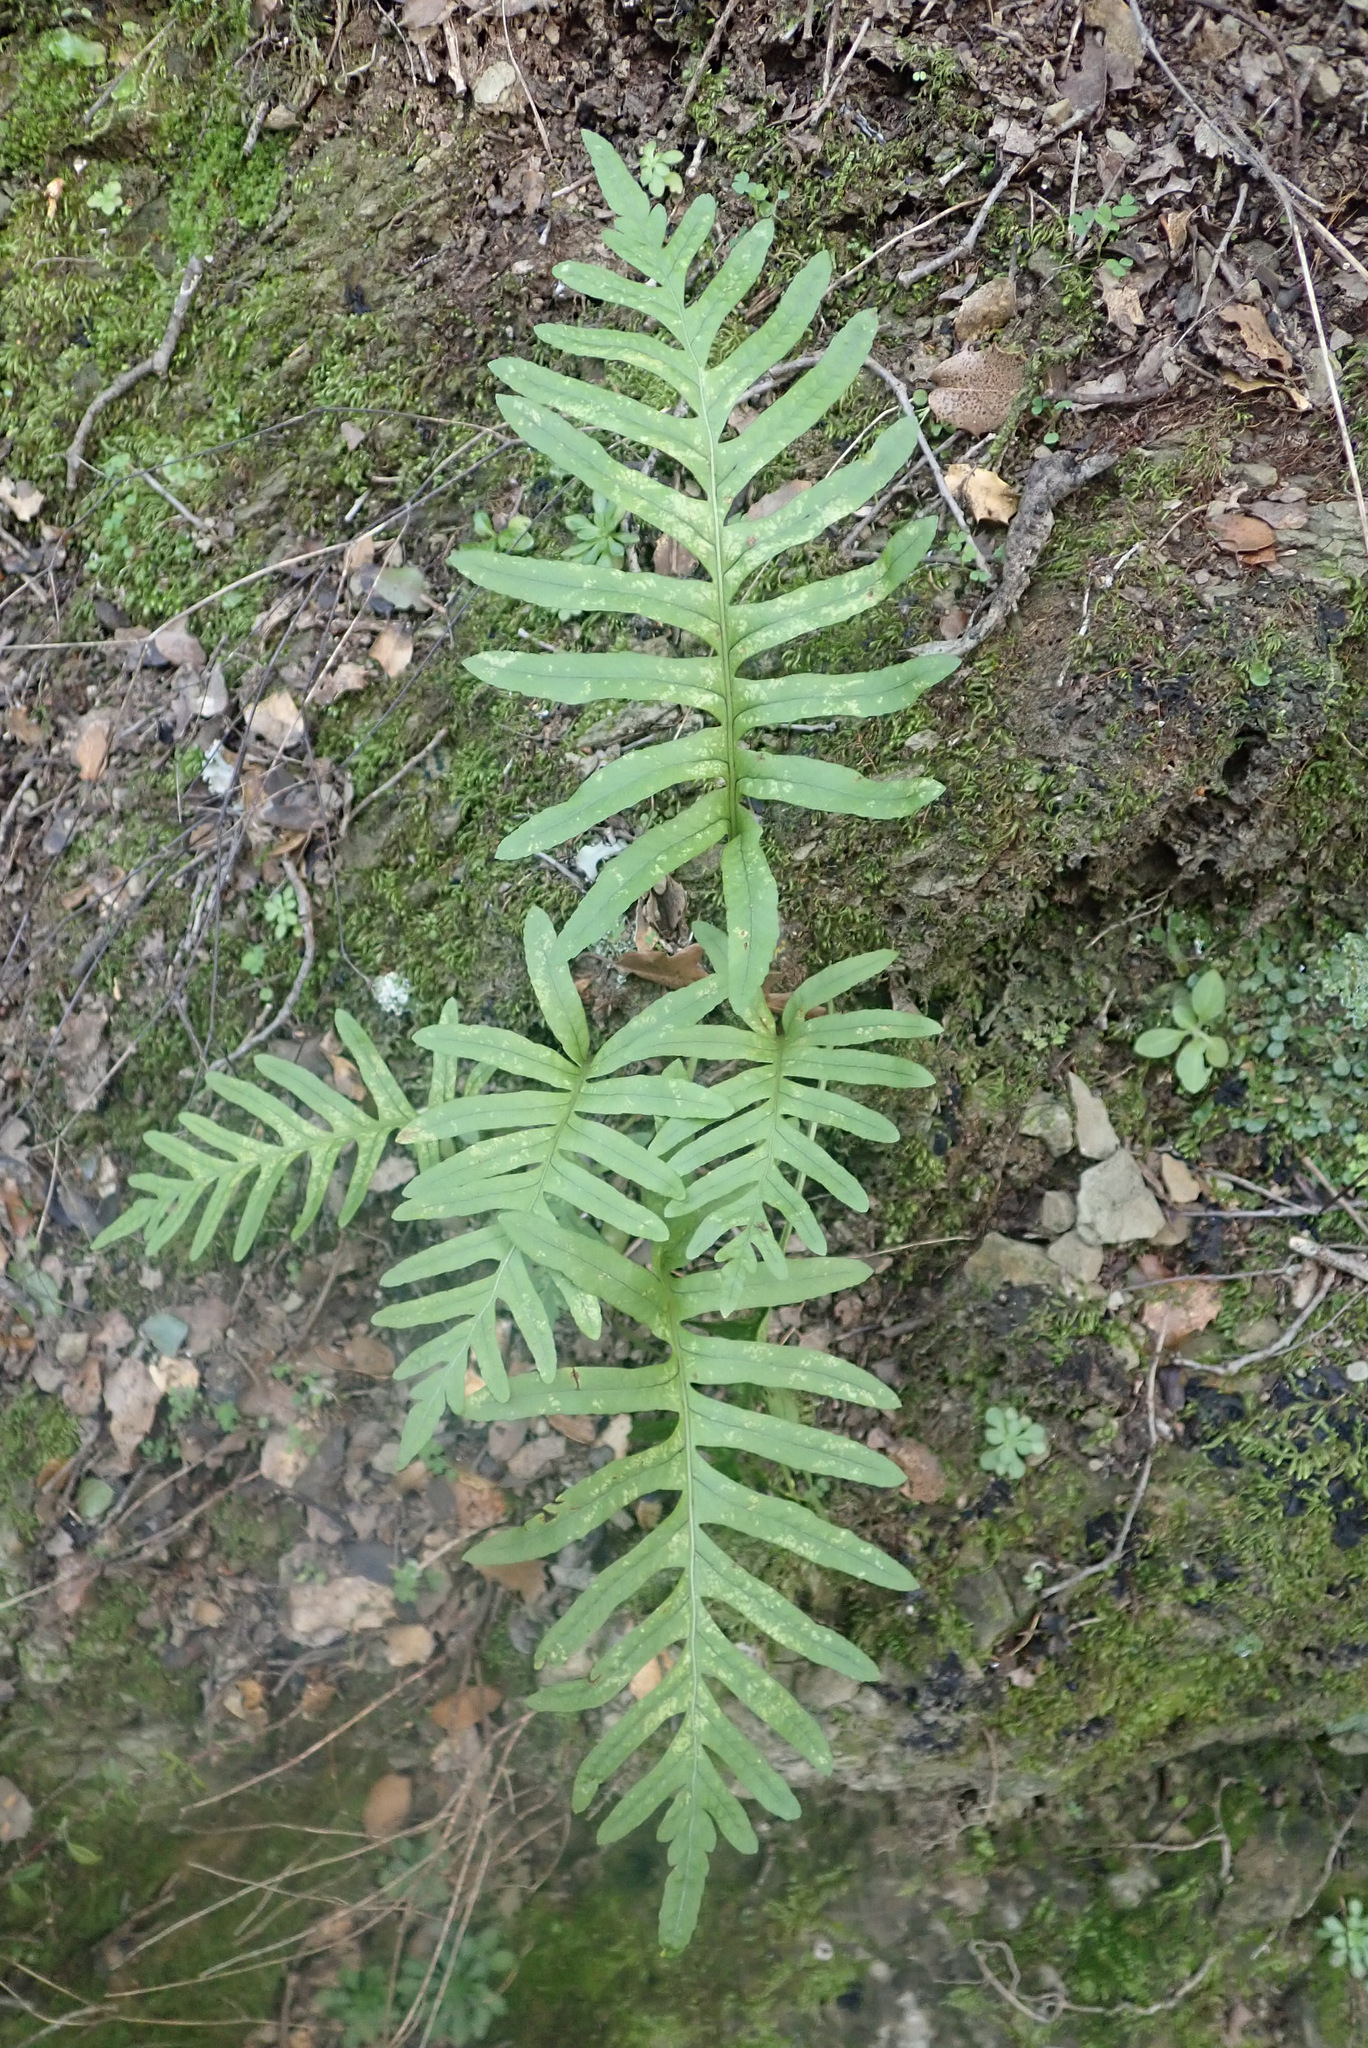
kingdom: Plantae
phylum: Tracheophyta
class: Polypodiopsida
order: Polypodiales
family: Polypodiaceae
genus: Polypodium
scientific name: Polypodium cambricum
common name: Southern polypody
